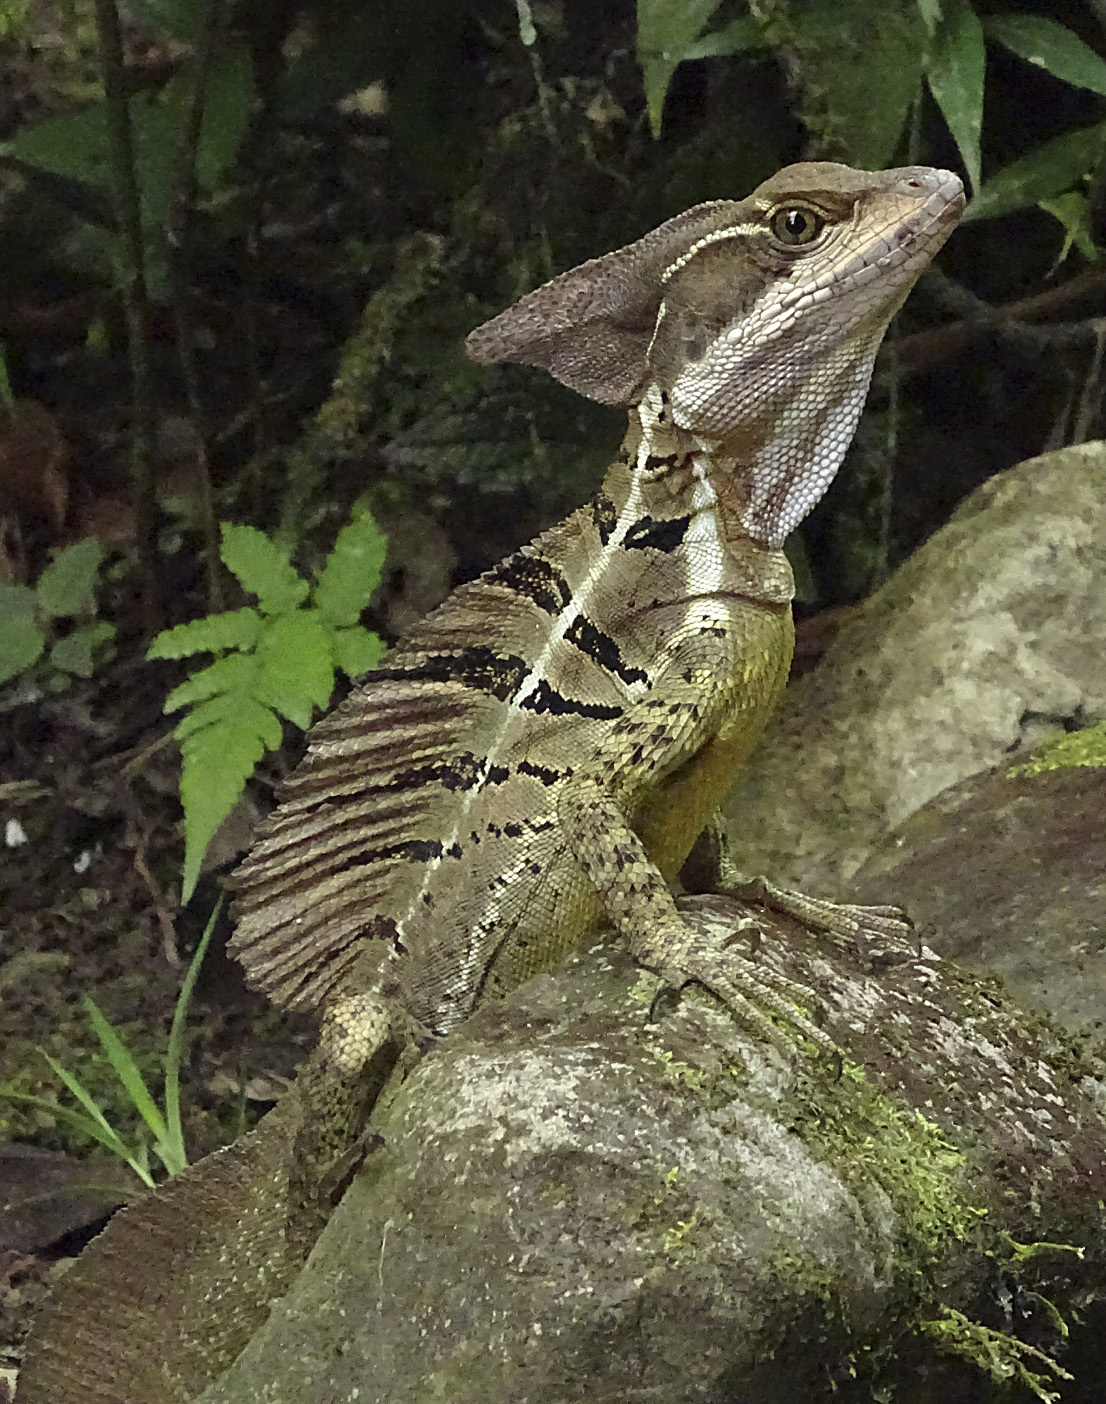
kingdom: Animalia
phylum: Chordata
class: Squamata
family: Corytophanidae
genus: Basiliscus
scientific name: Basiliscus basiliscus
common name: Common basilisk
